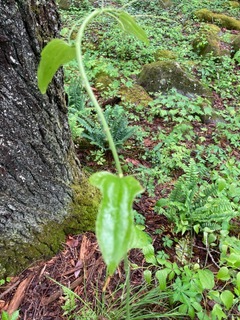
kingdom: Plantae
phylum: Tracheophyta
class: Liliopsida
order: Liliales
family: Smilacaceae
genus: Smilax
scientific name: Smilax tamnoides
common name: Hellfetter
